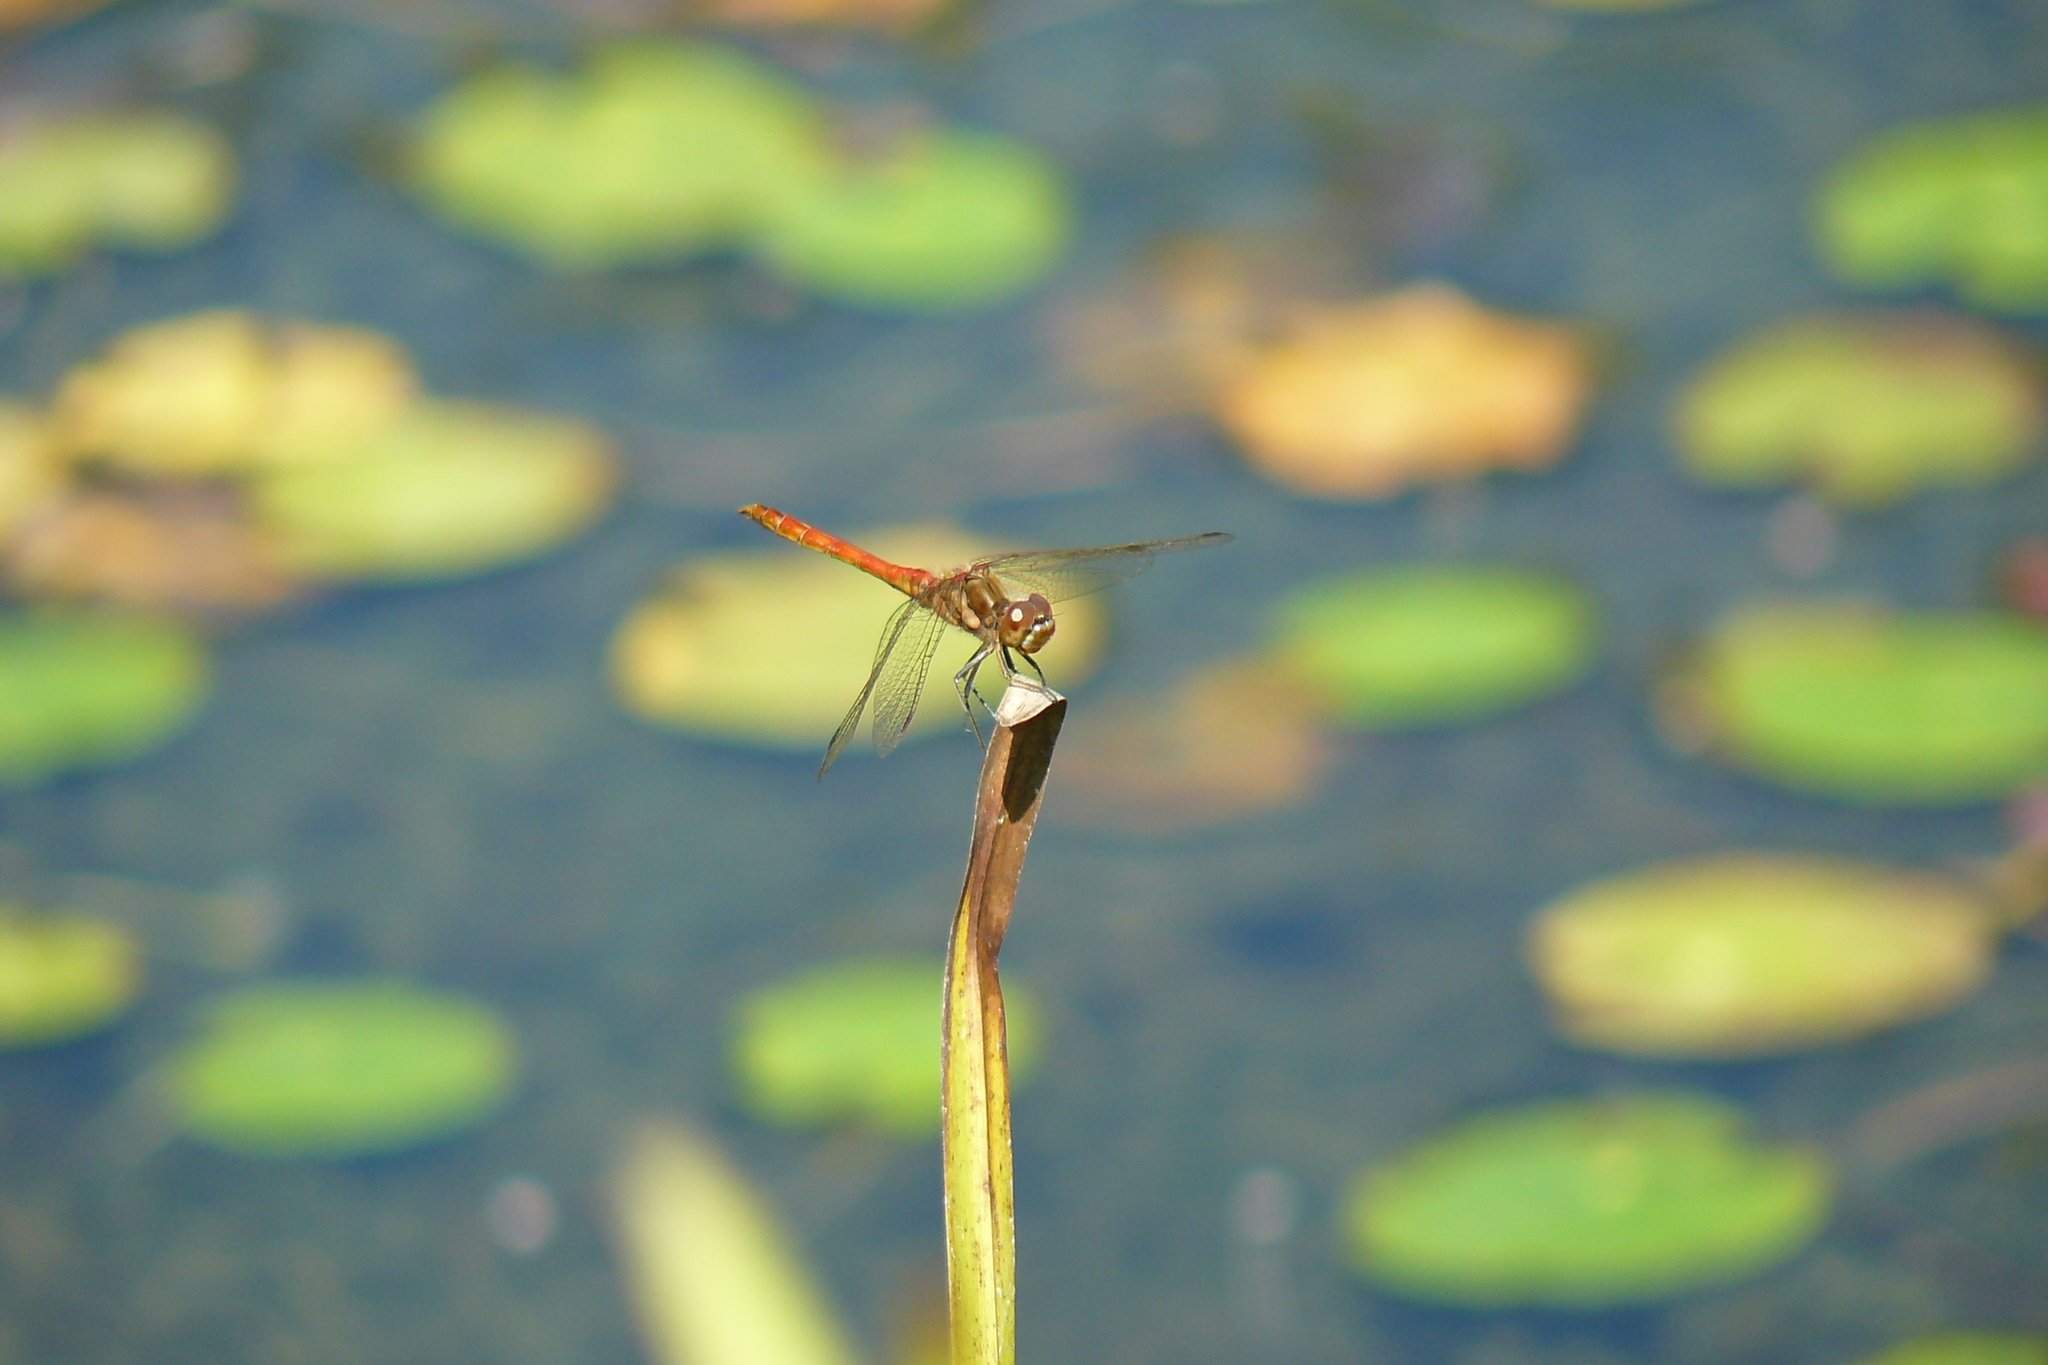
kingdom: Animalia
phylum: Arthropoda
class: Insecta
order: Odonata
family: Libellulidae
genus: Sympetrum
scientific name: Sympetrum striolatum
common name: Common darter
